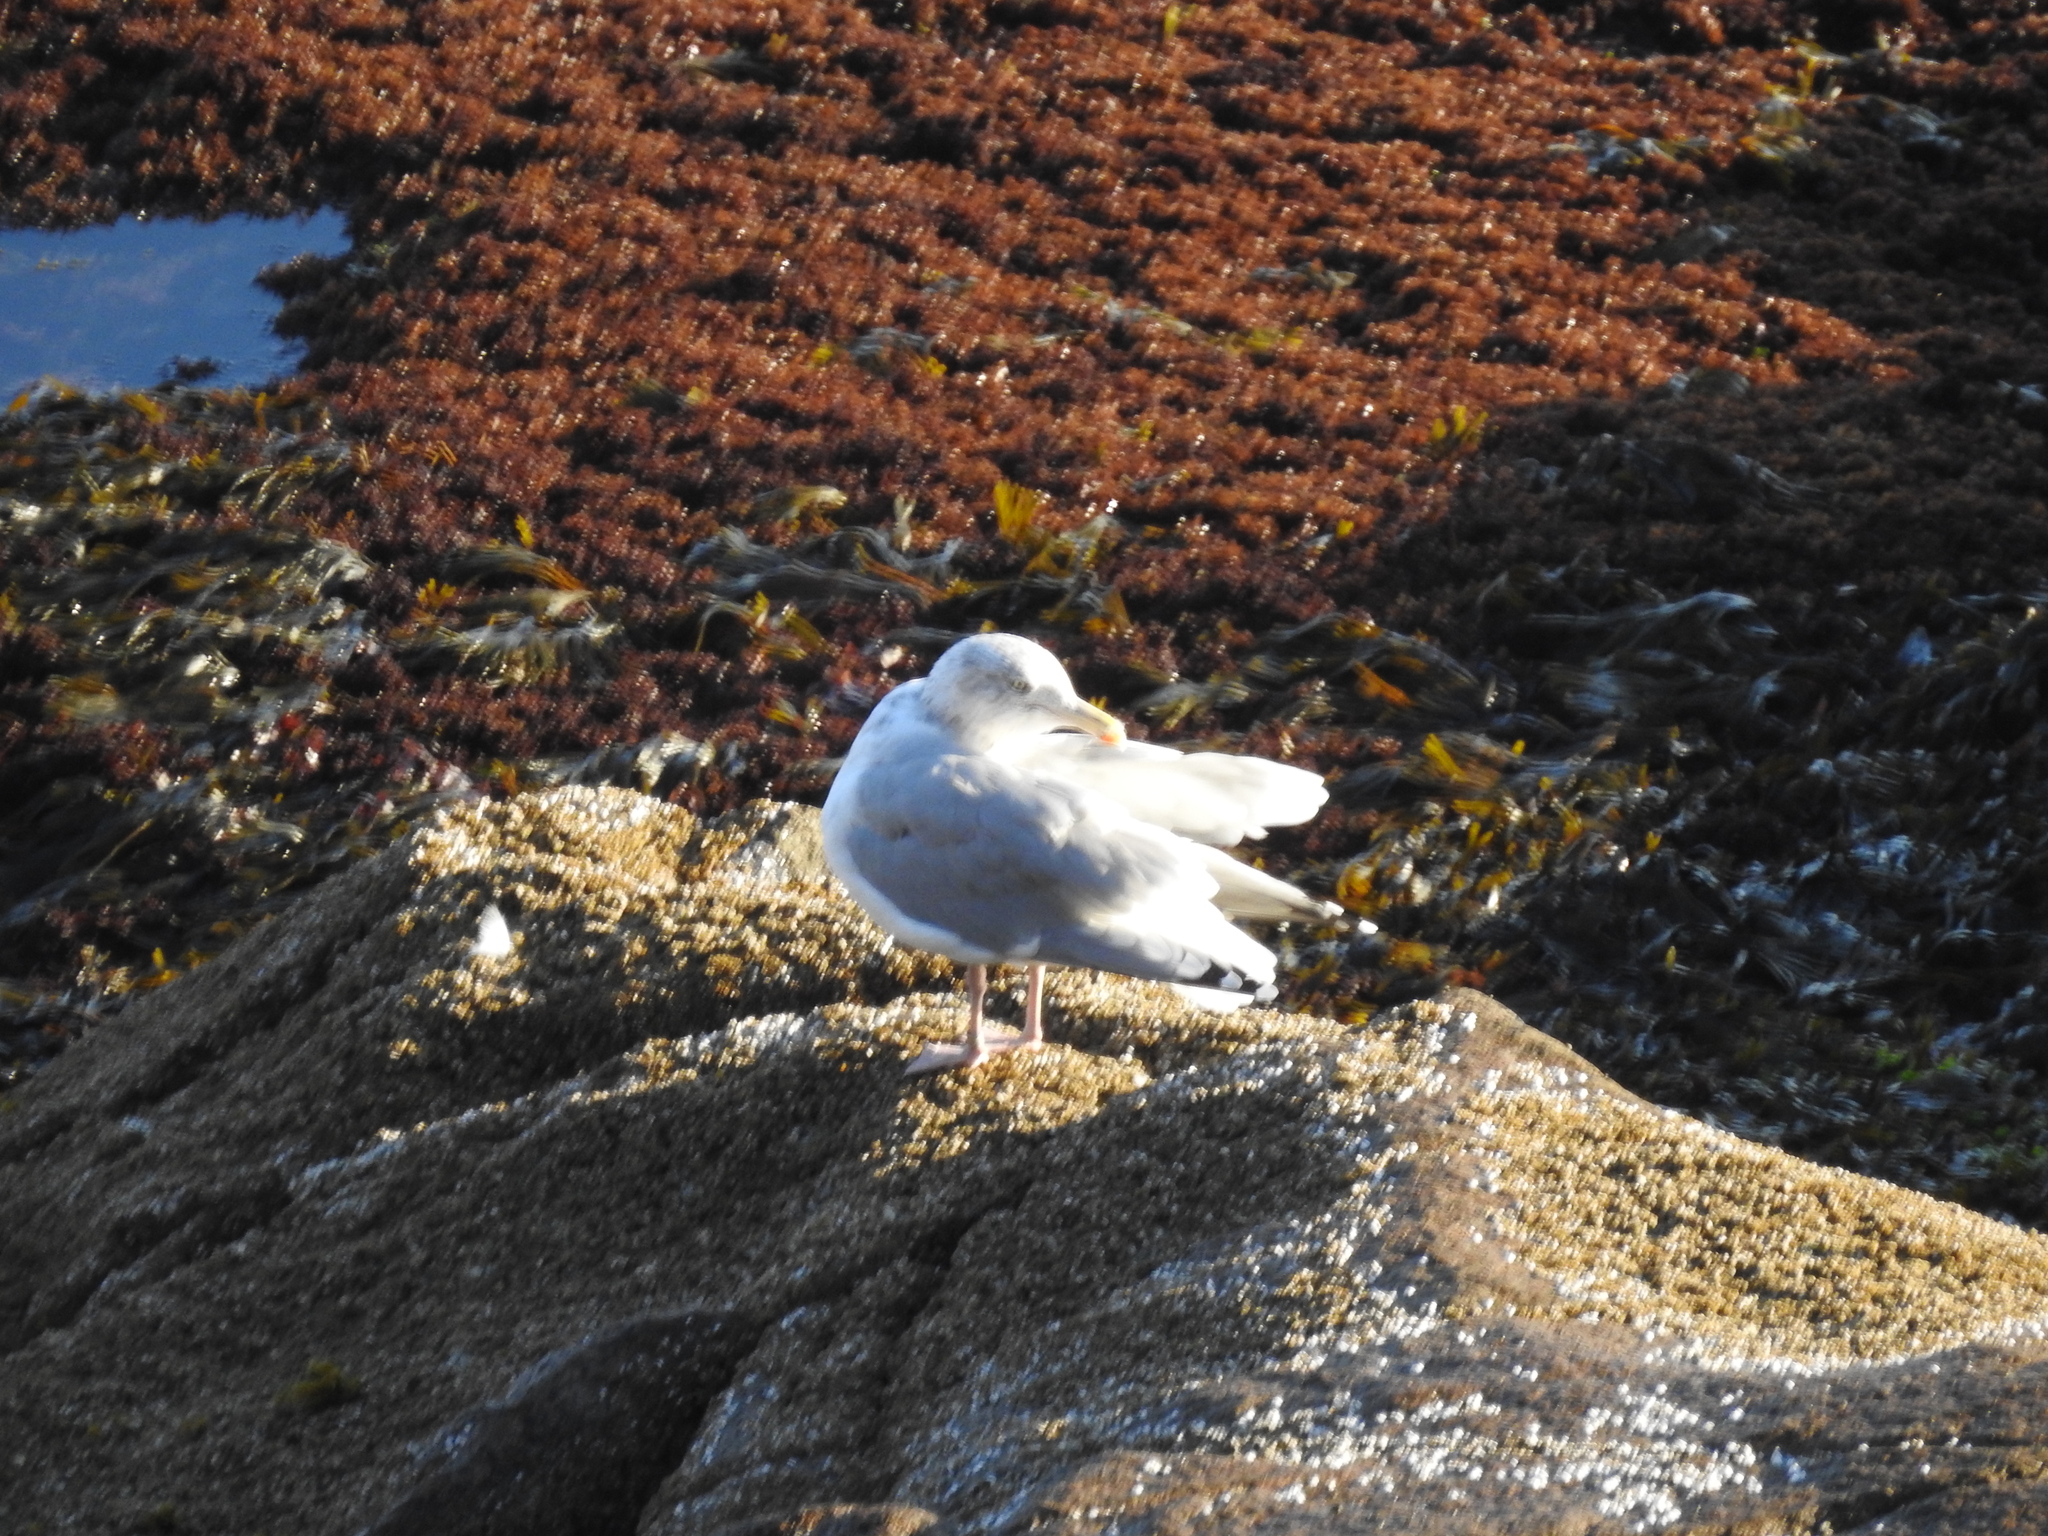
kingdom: Animalia
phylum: Chordata
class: Aves
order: Charadriiformes
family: Laridae
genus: Larus
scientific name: Larus argentatus
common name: Herring gull
